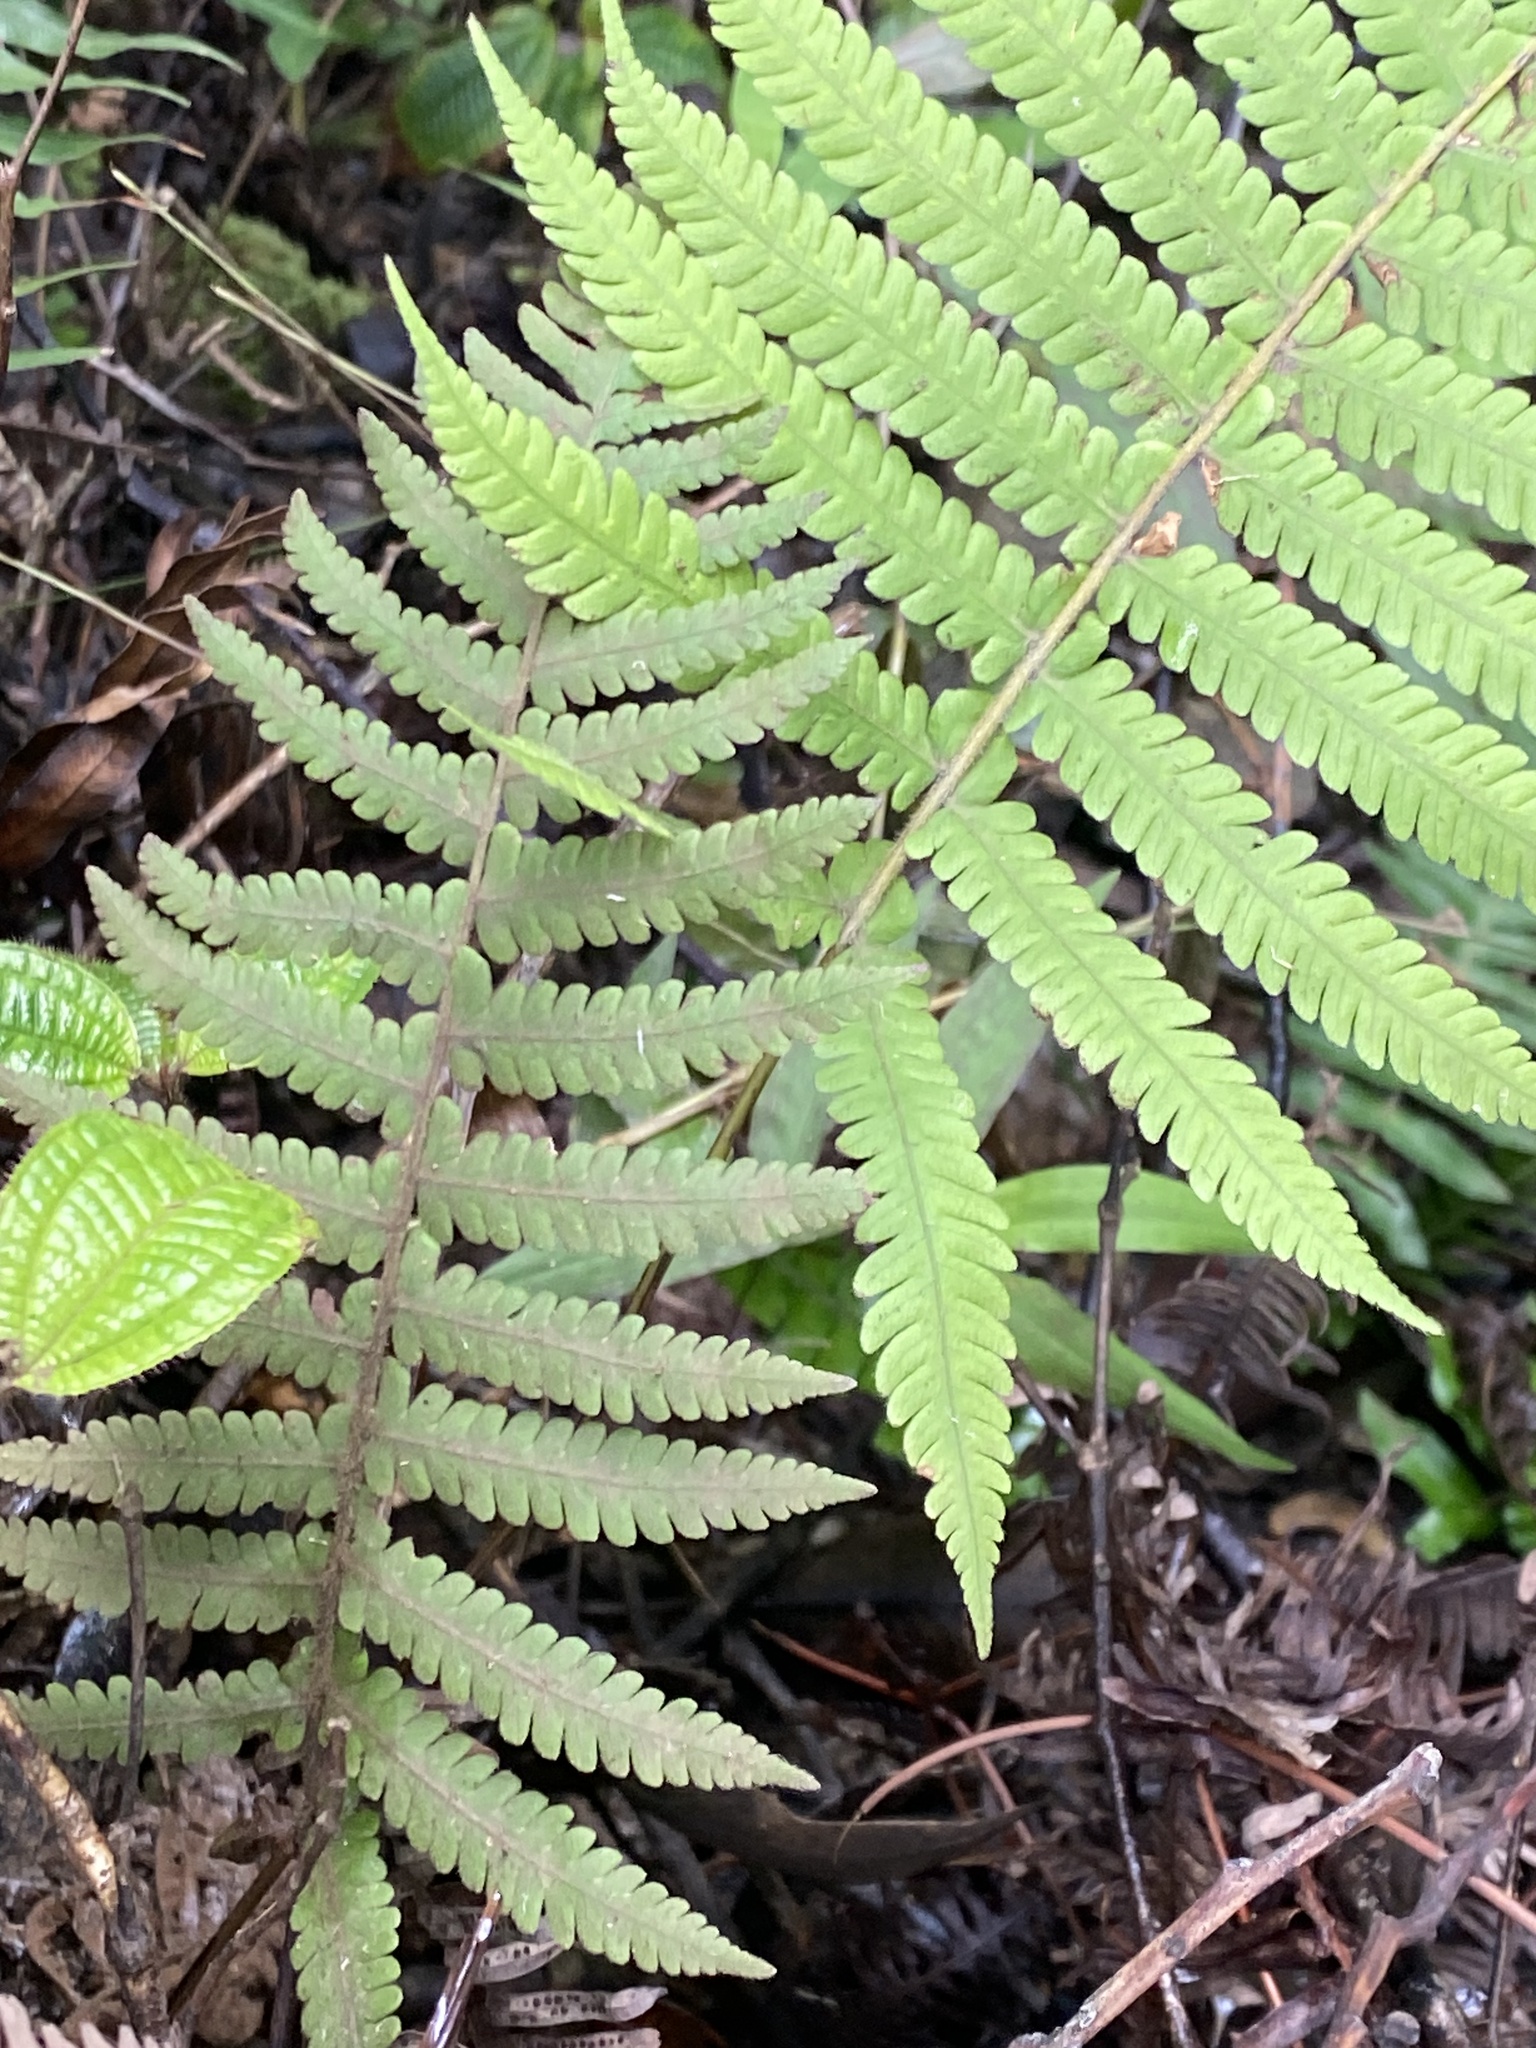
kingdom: Plantae
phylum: Tracheophyta
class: Polypodiopsida
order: Polypodiales
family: Thelypteridaceae
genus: Christella
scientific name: Christella parasitica
